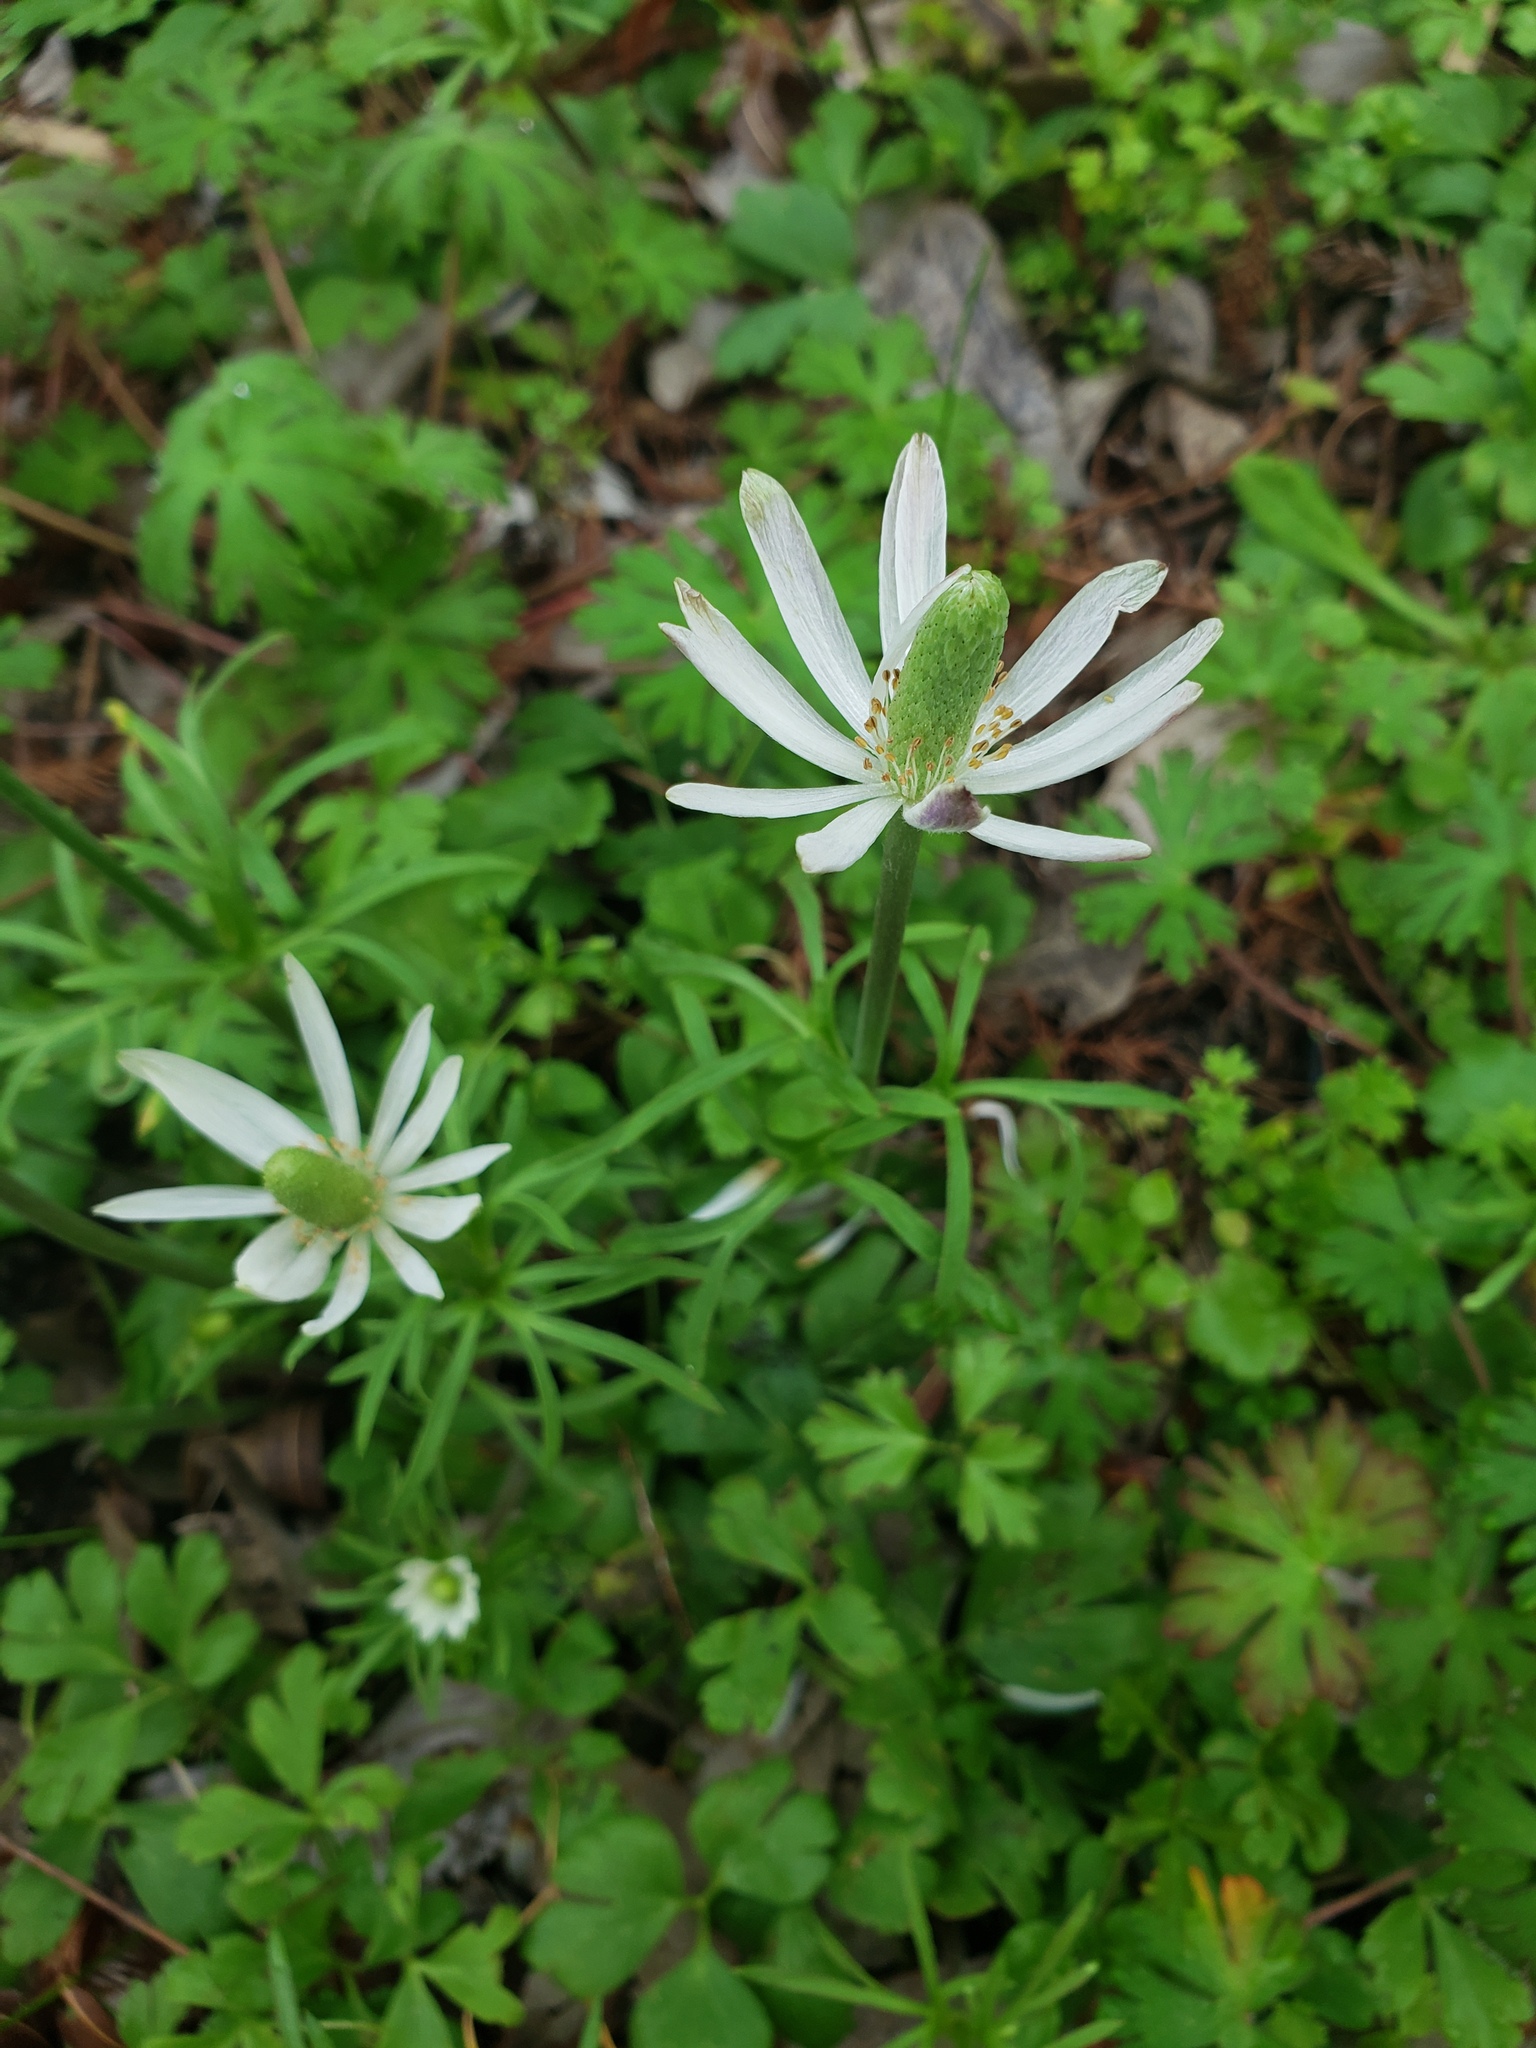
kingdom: Plantae
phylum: Tracheophyta
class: Magnoliopsida
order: Ranunculales
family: Ranunculaceae
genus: Anemone
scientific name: Anemone berlandieri
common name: Ten-petal anemone
